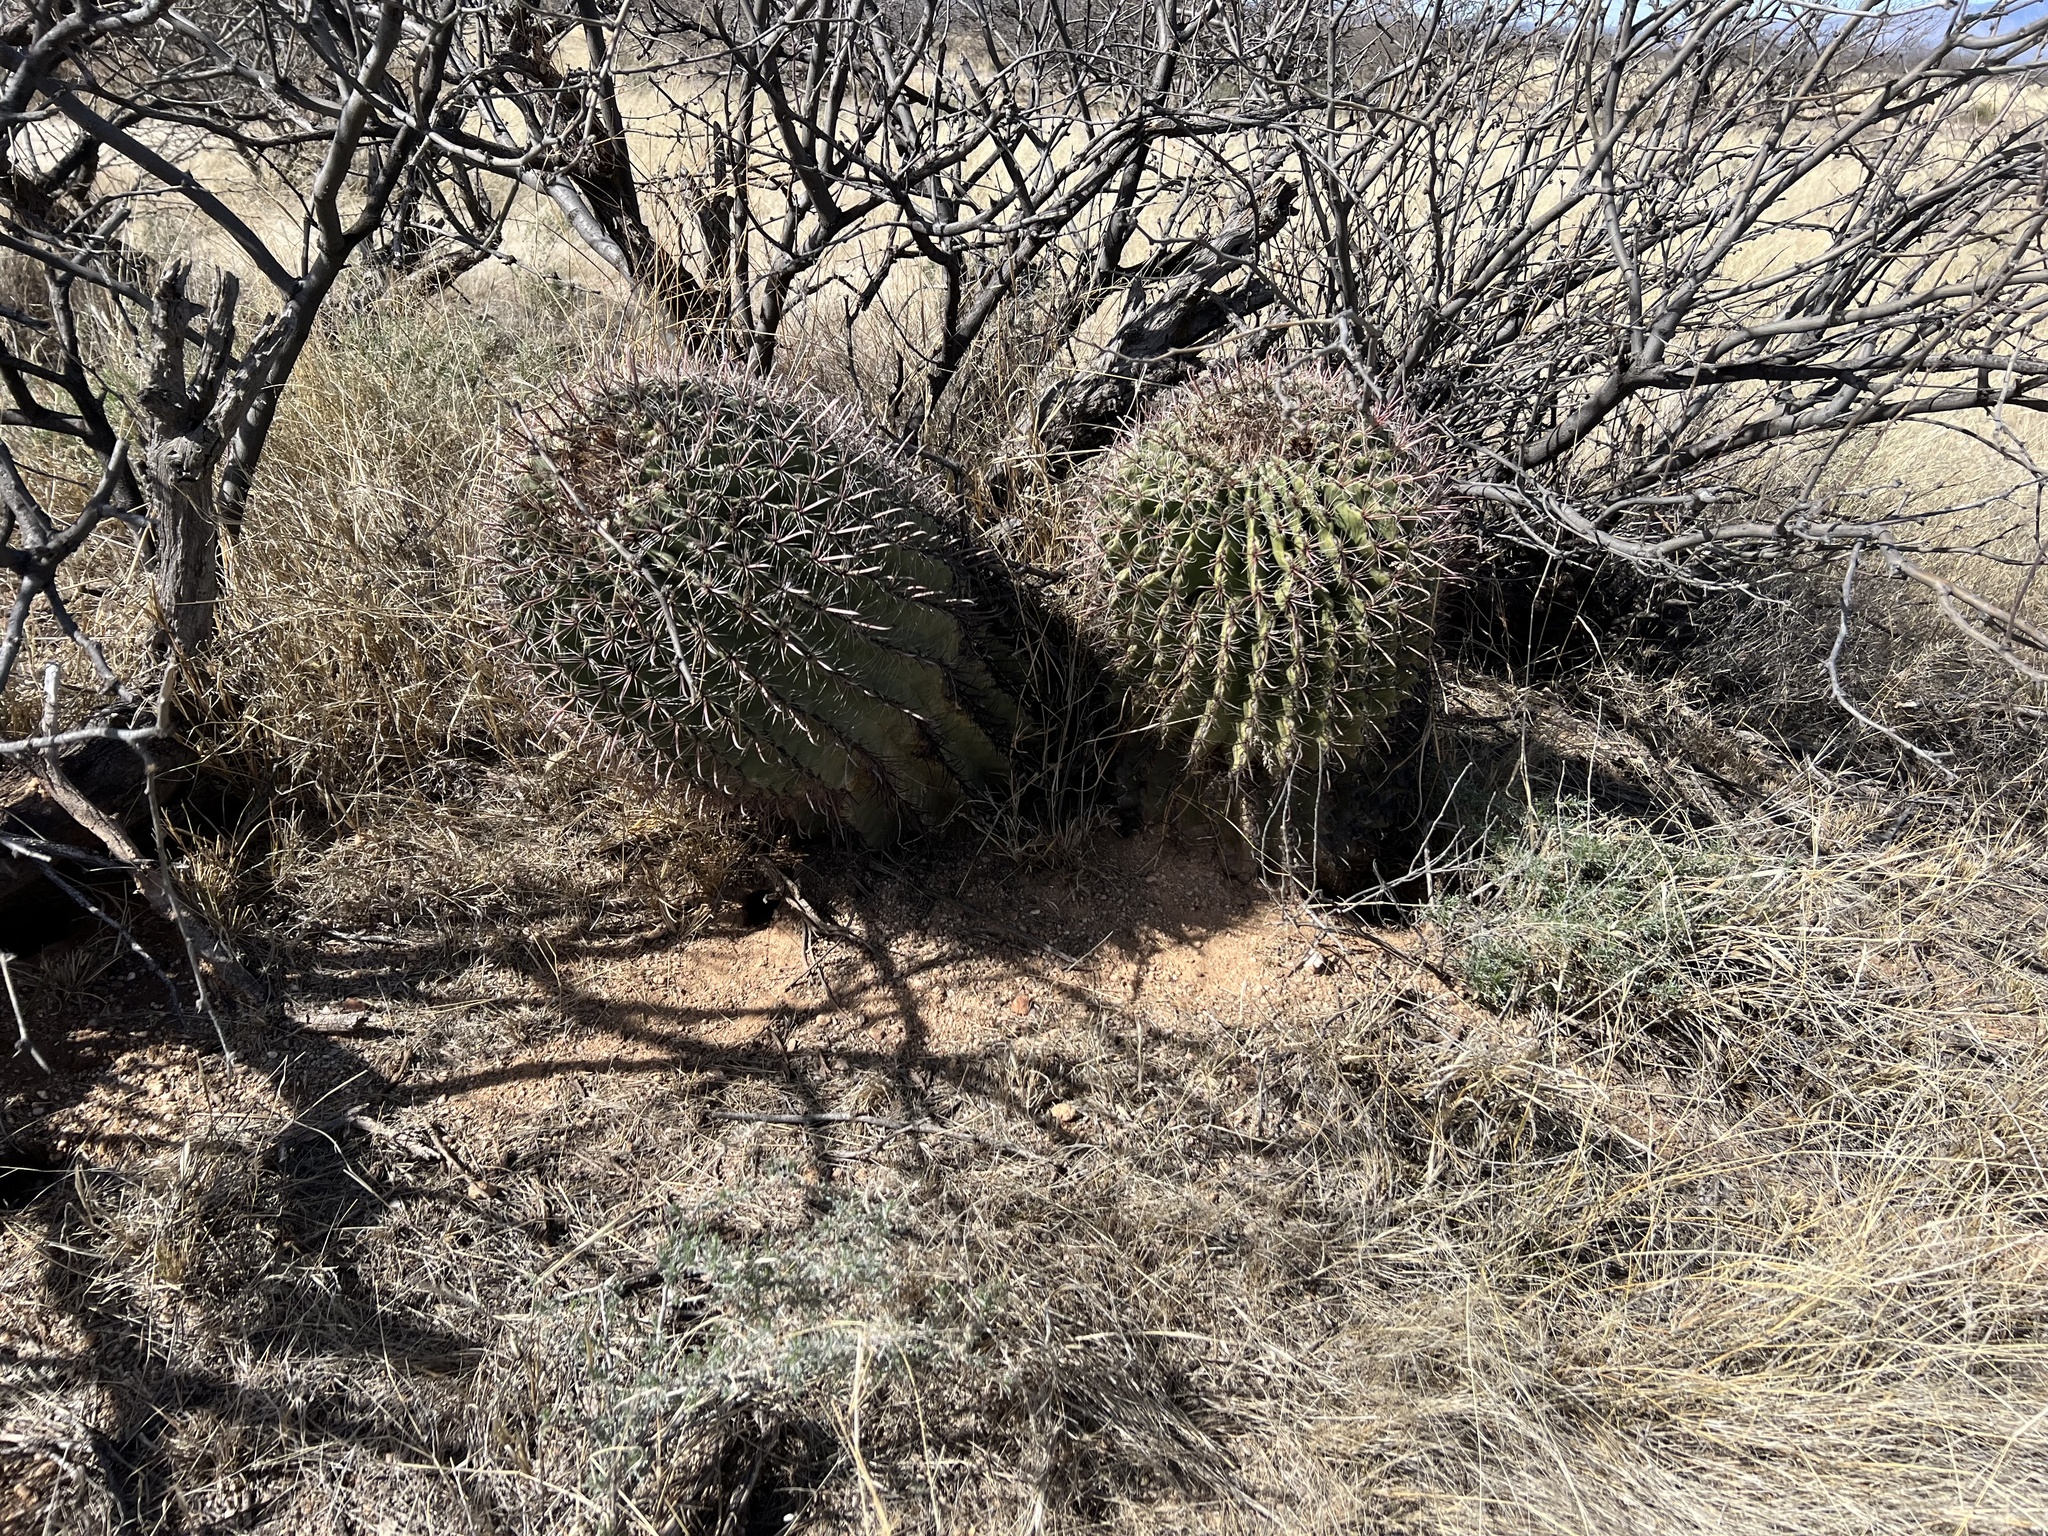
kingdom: Plantae
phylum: Tracheophyta
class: Magnoliopsida
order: Caryophyllales
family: Cactaceae
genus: Ferocactus
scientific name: Ferocactus wislizeni
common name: Candy barrel cactus
